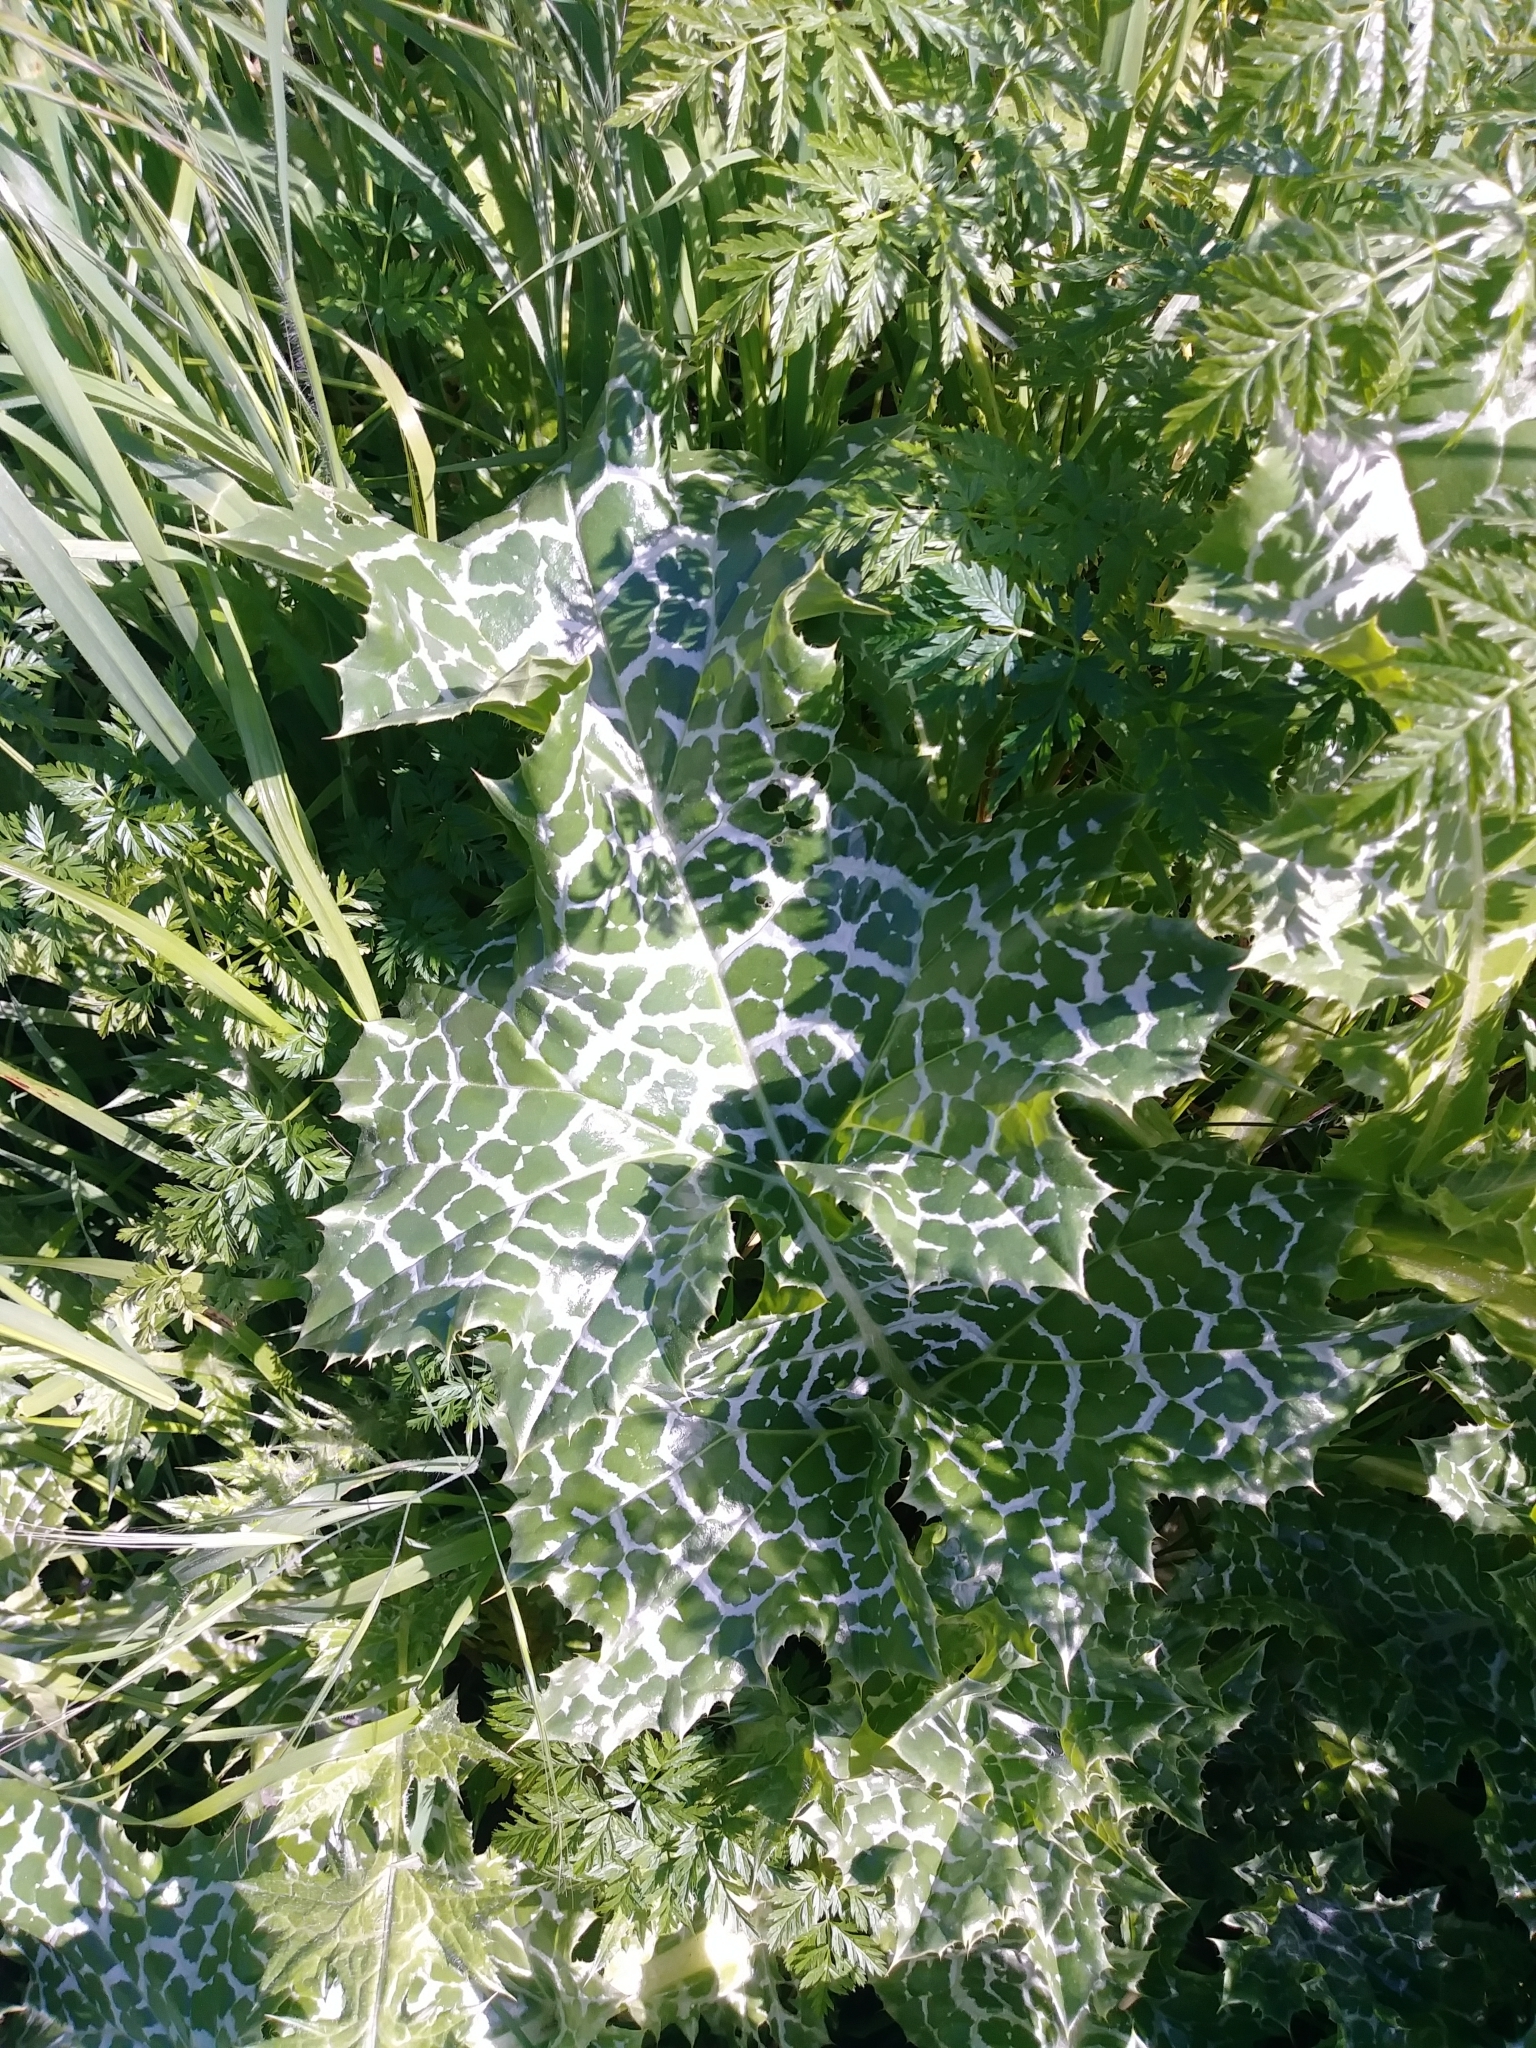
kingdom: Plantae
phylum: Tracheophyta
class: Magnoliopsida
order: Asterales
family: Asteraceae
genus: Silybum
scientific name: Silybum marianum
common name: Milk thistle
